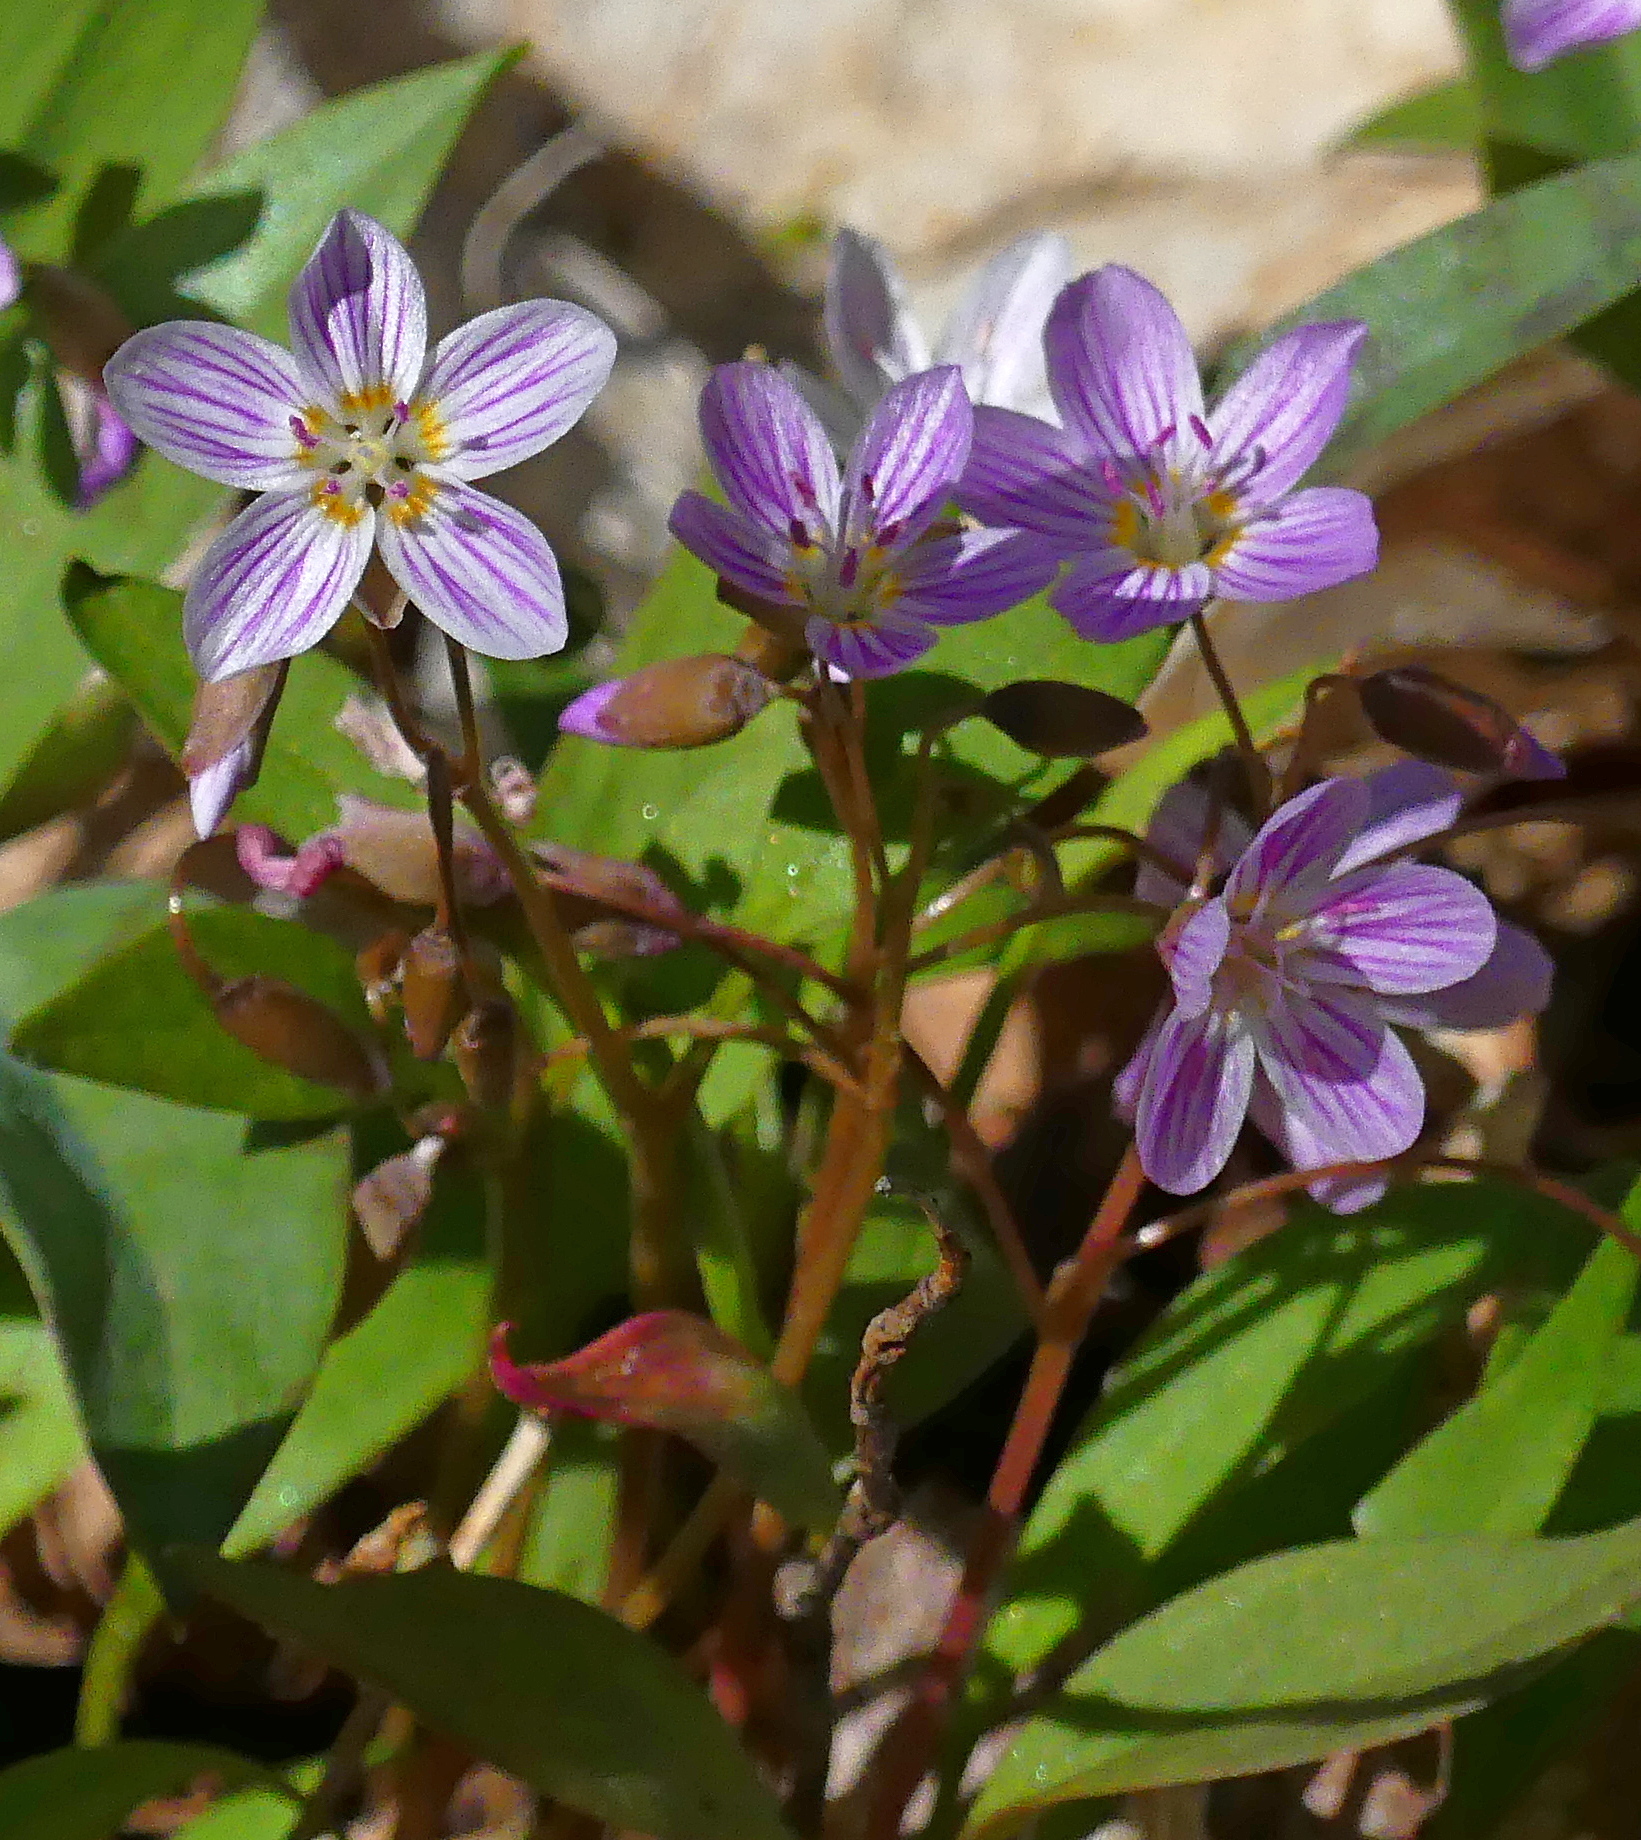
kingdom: Plantae
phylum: Tracheophyta
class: Magnoliopsida
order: Caryophyllales
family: Montiaceae
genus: Claytonia
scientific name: Claytonia caroliniana
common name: Carolina spring beauty
